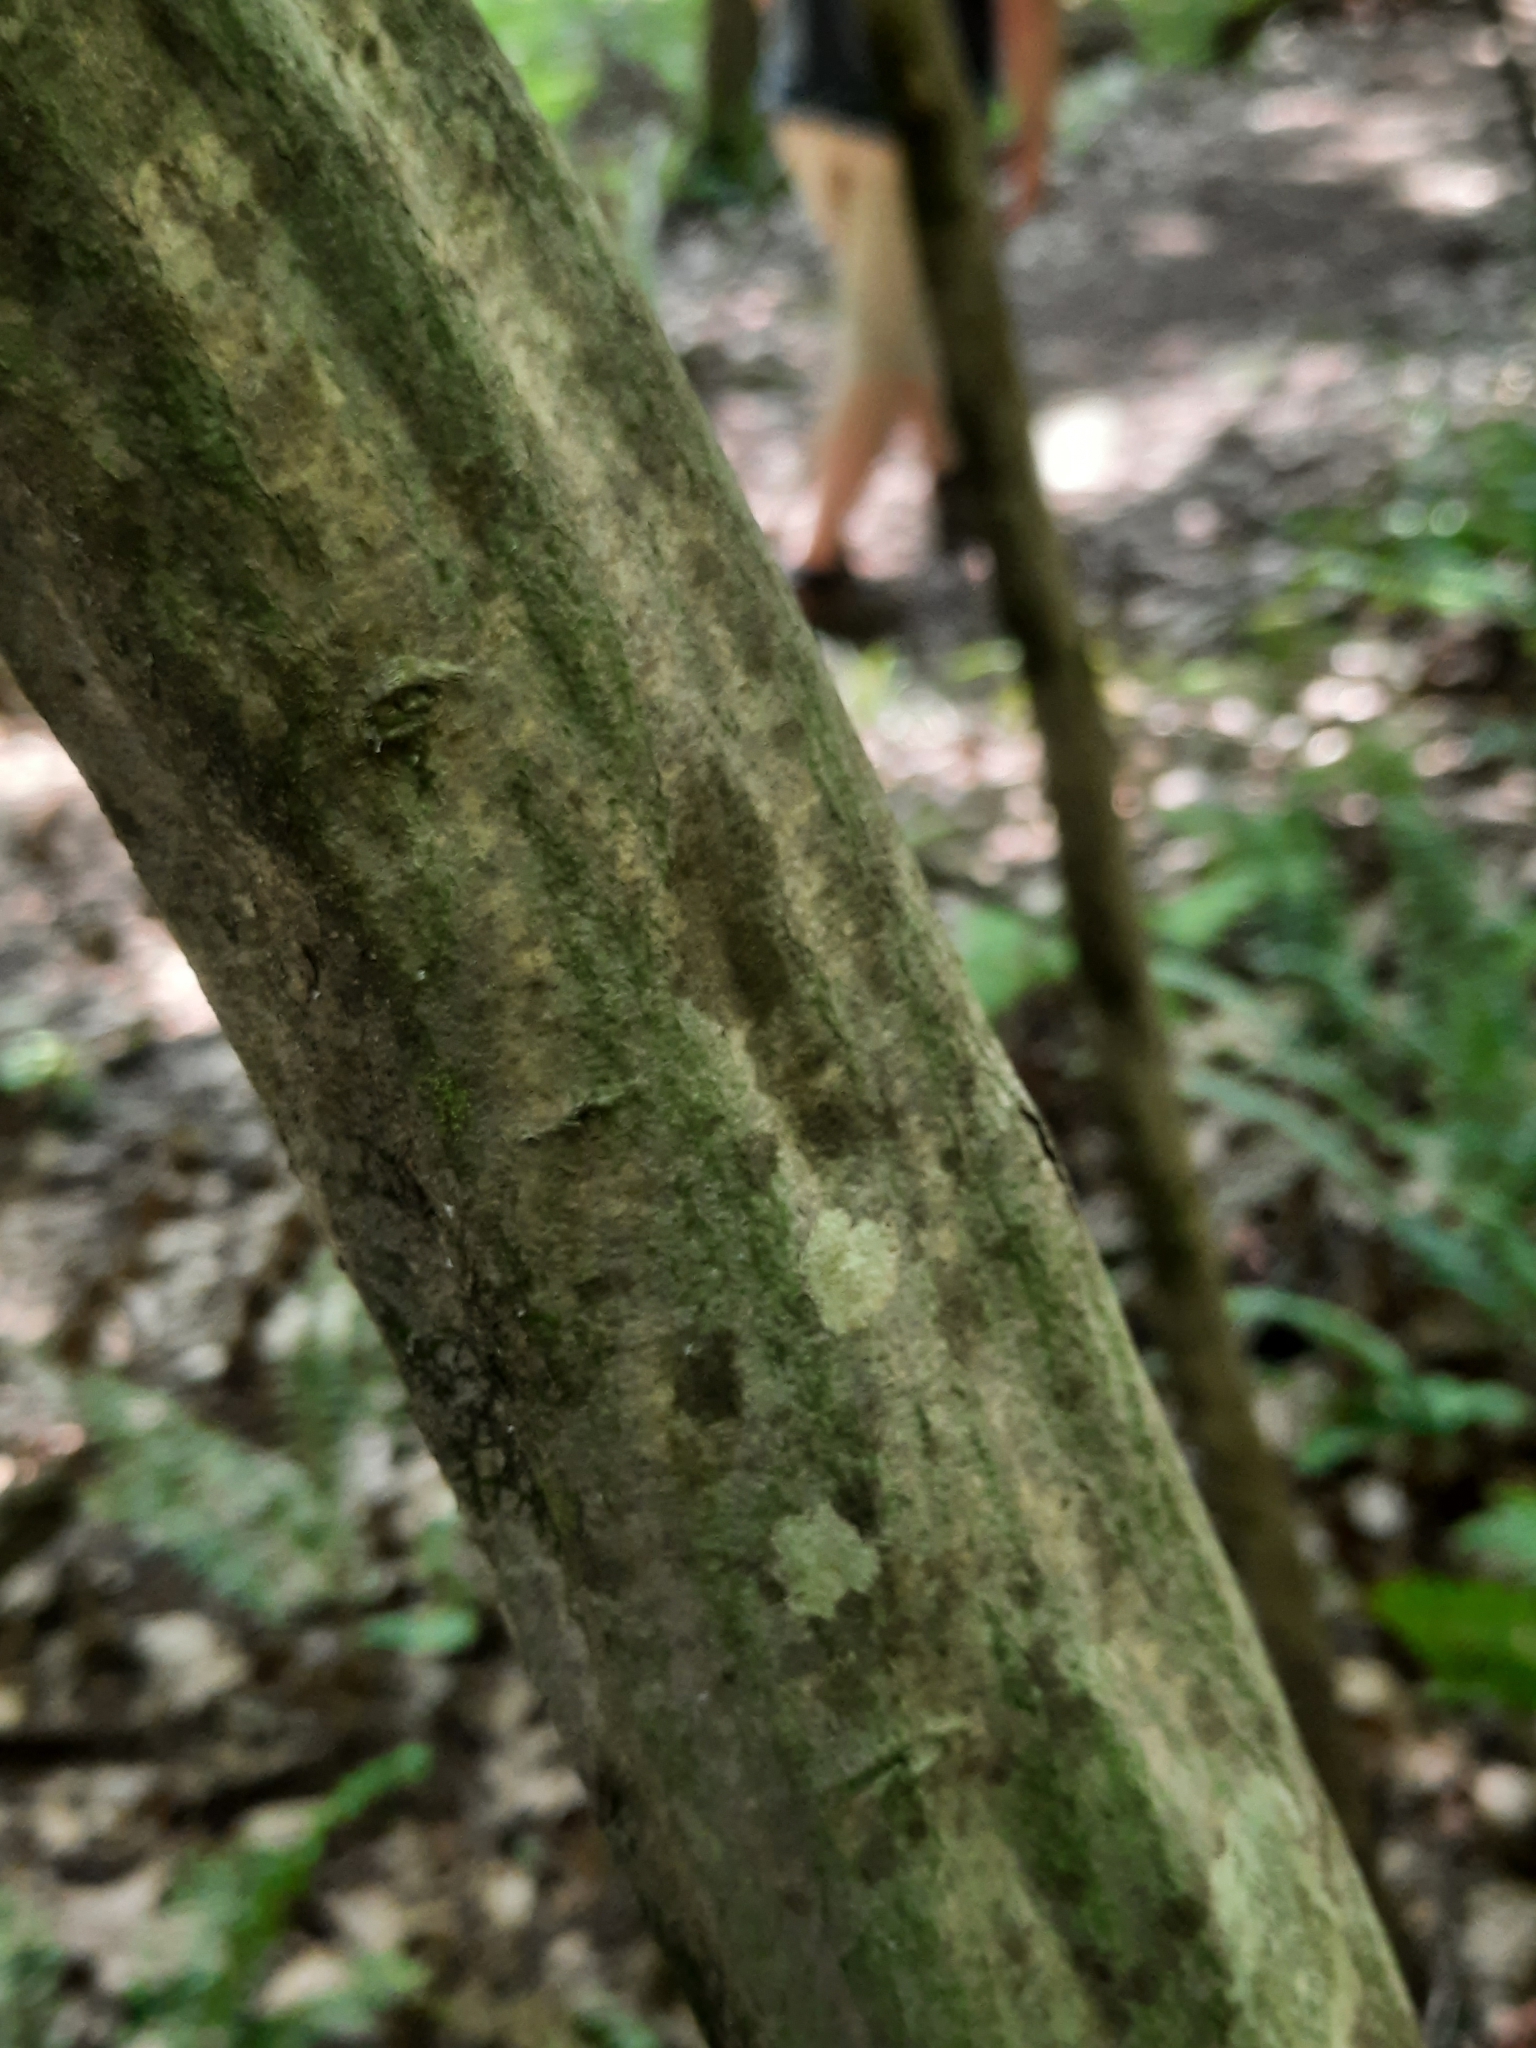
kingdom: Plantae
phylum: Tracheophyta
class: Magnoliopsida
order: Fagales
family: Betulaceae
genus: Carpinus
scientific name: Carpinus caroliniana
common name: American hornbeam
